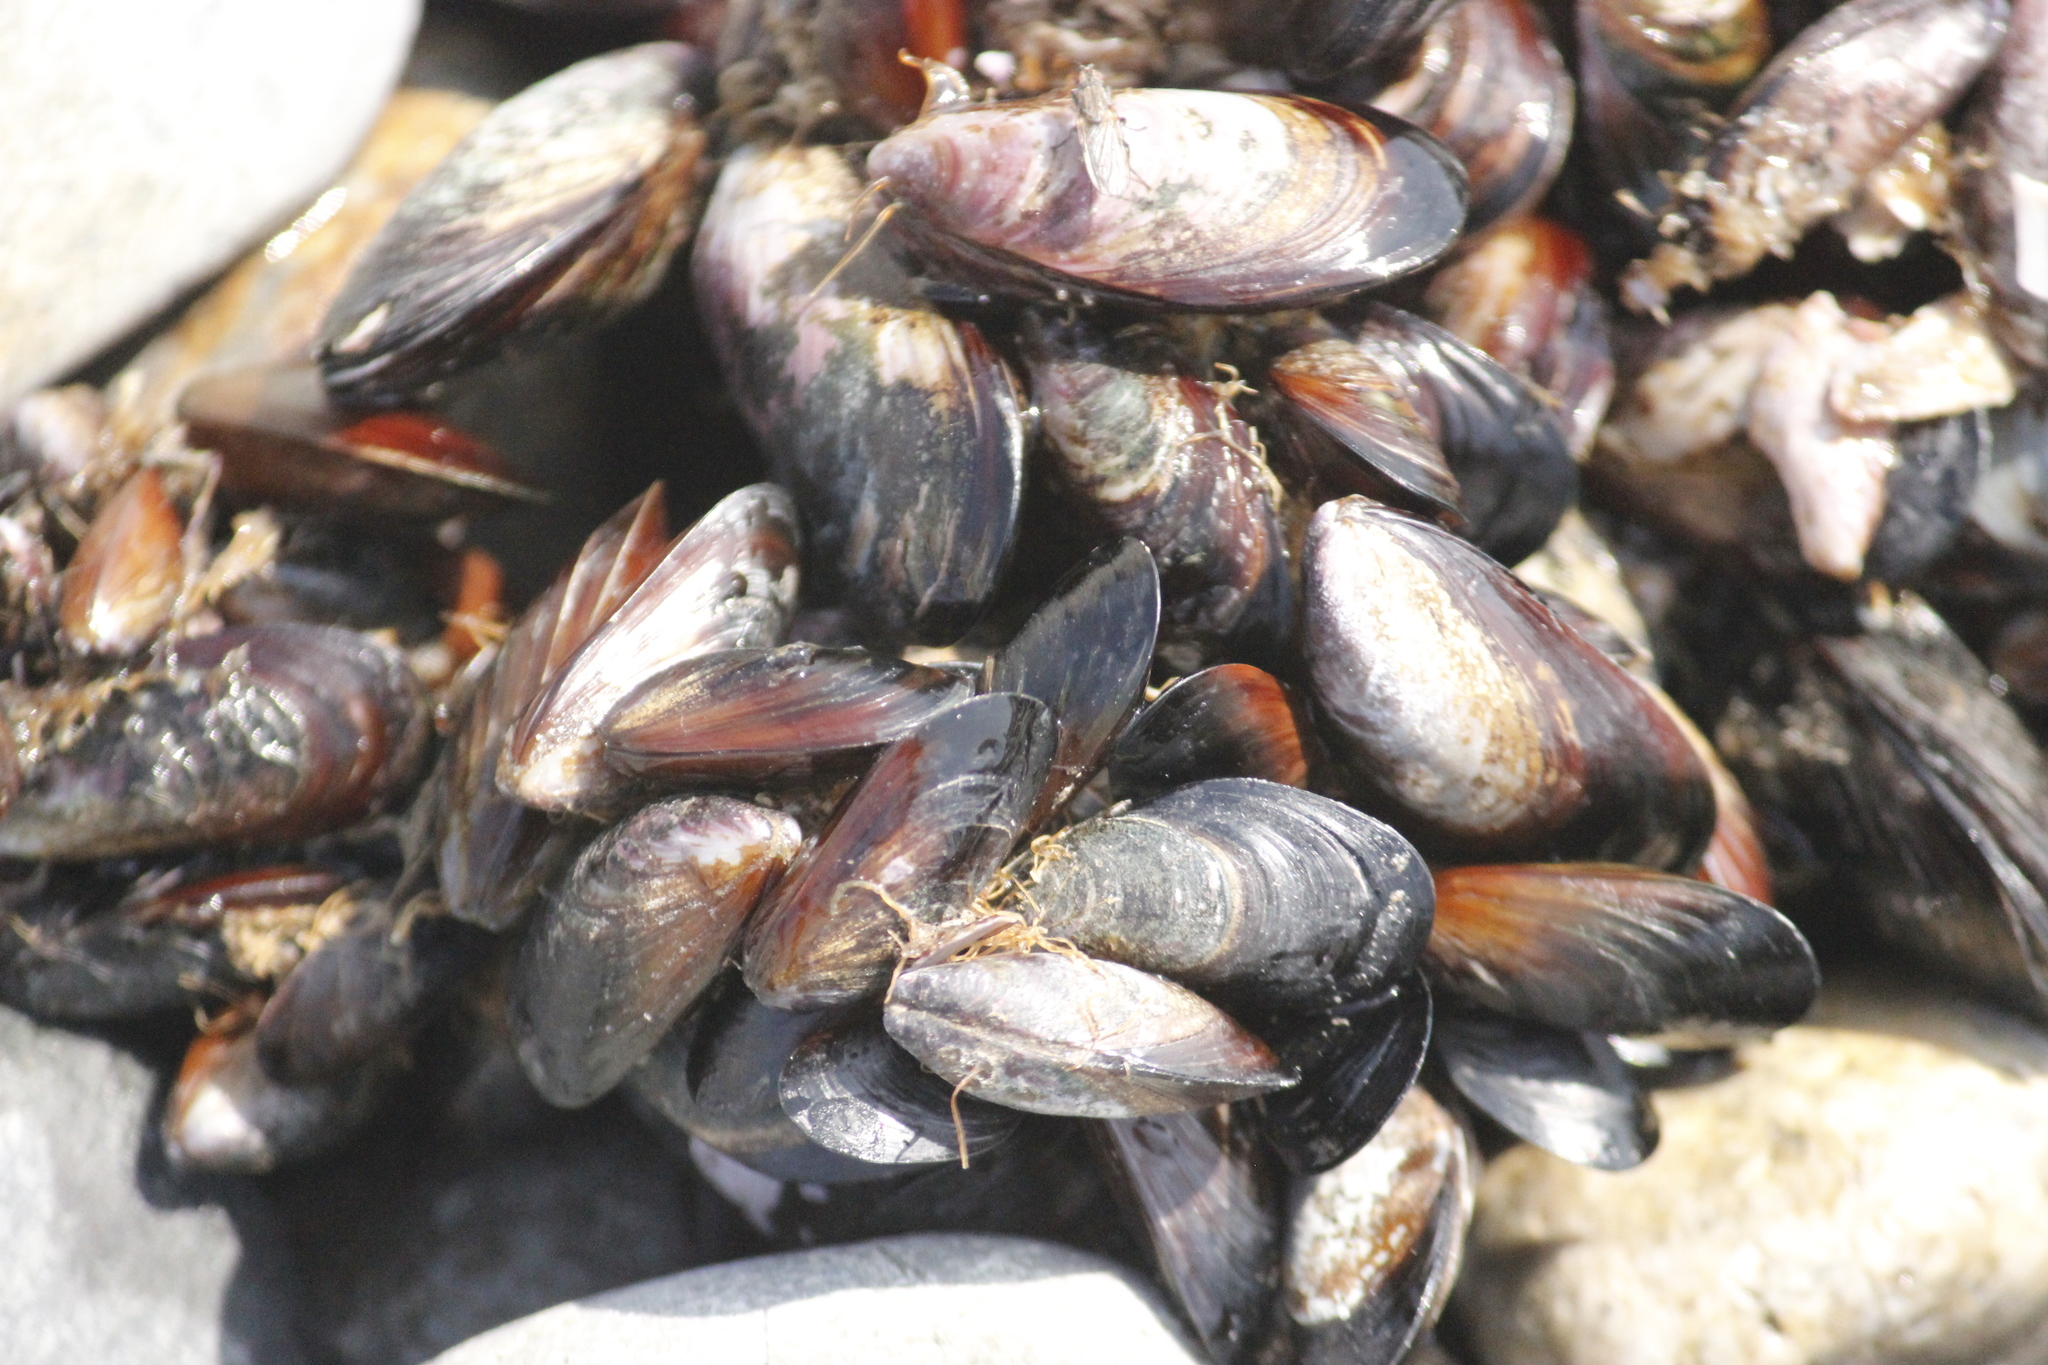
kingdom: Animalia
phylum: Mollusca
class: Bivalvia
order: Mytilida
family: Mytilidae
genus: Semimytilus
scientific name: Semimytilus patagonicus
